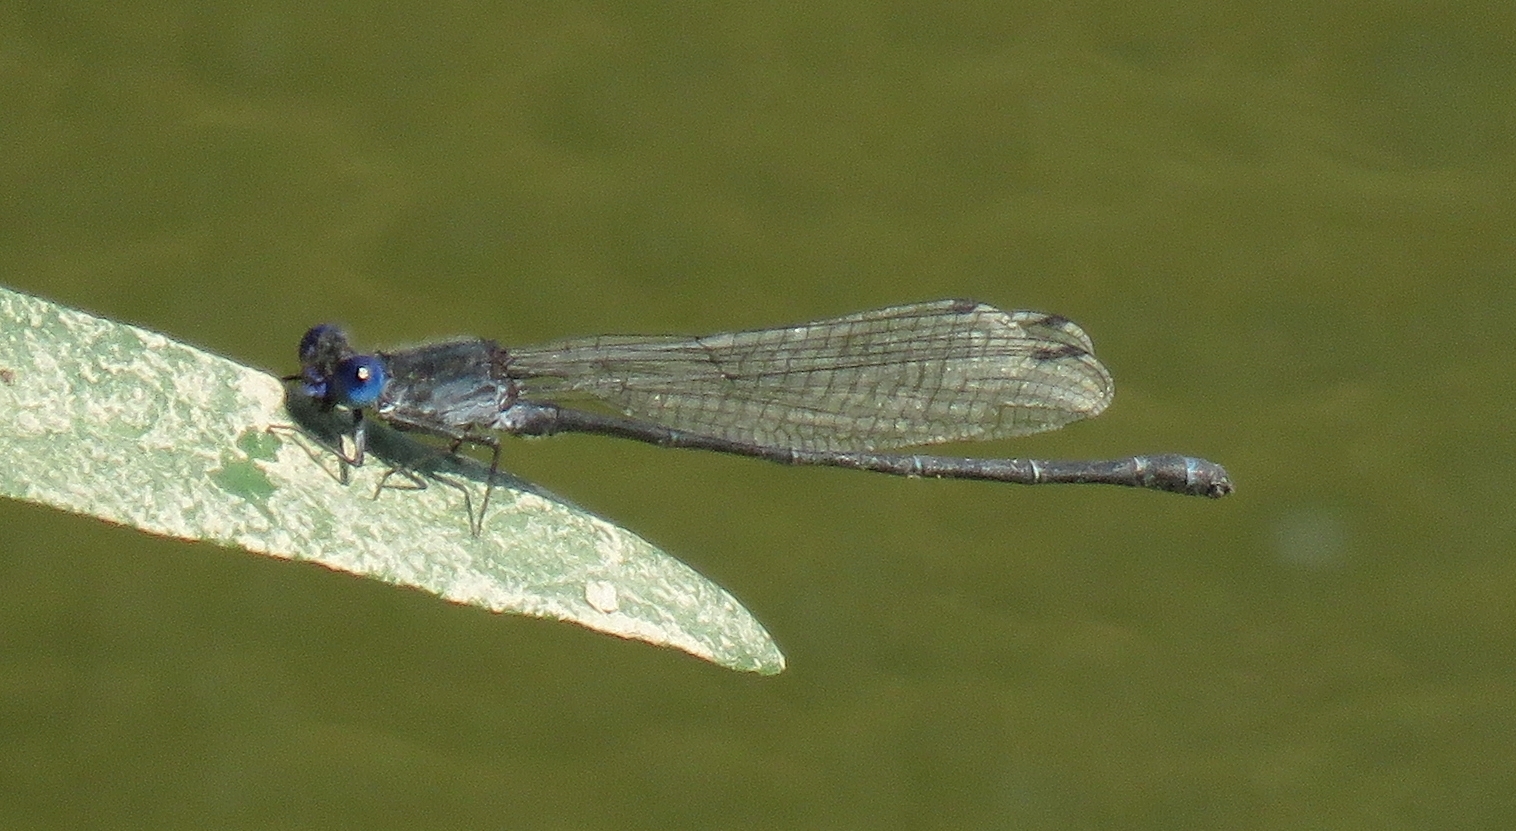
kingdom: Animalia
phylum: Arthropoda
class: Insecta
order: Odonata
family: Coenagrionidae
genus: Argia
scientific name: Argia translata
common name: Dusky dancer
